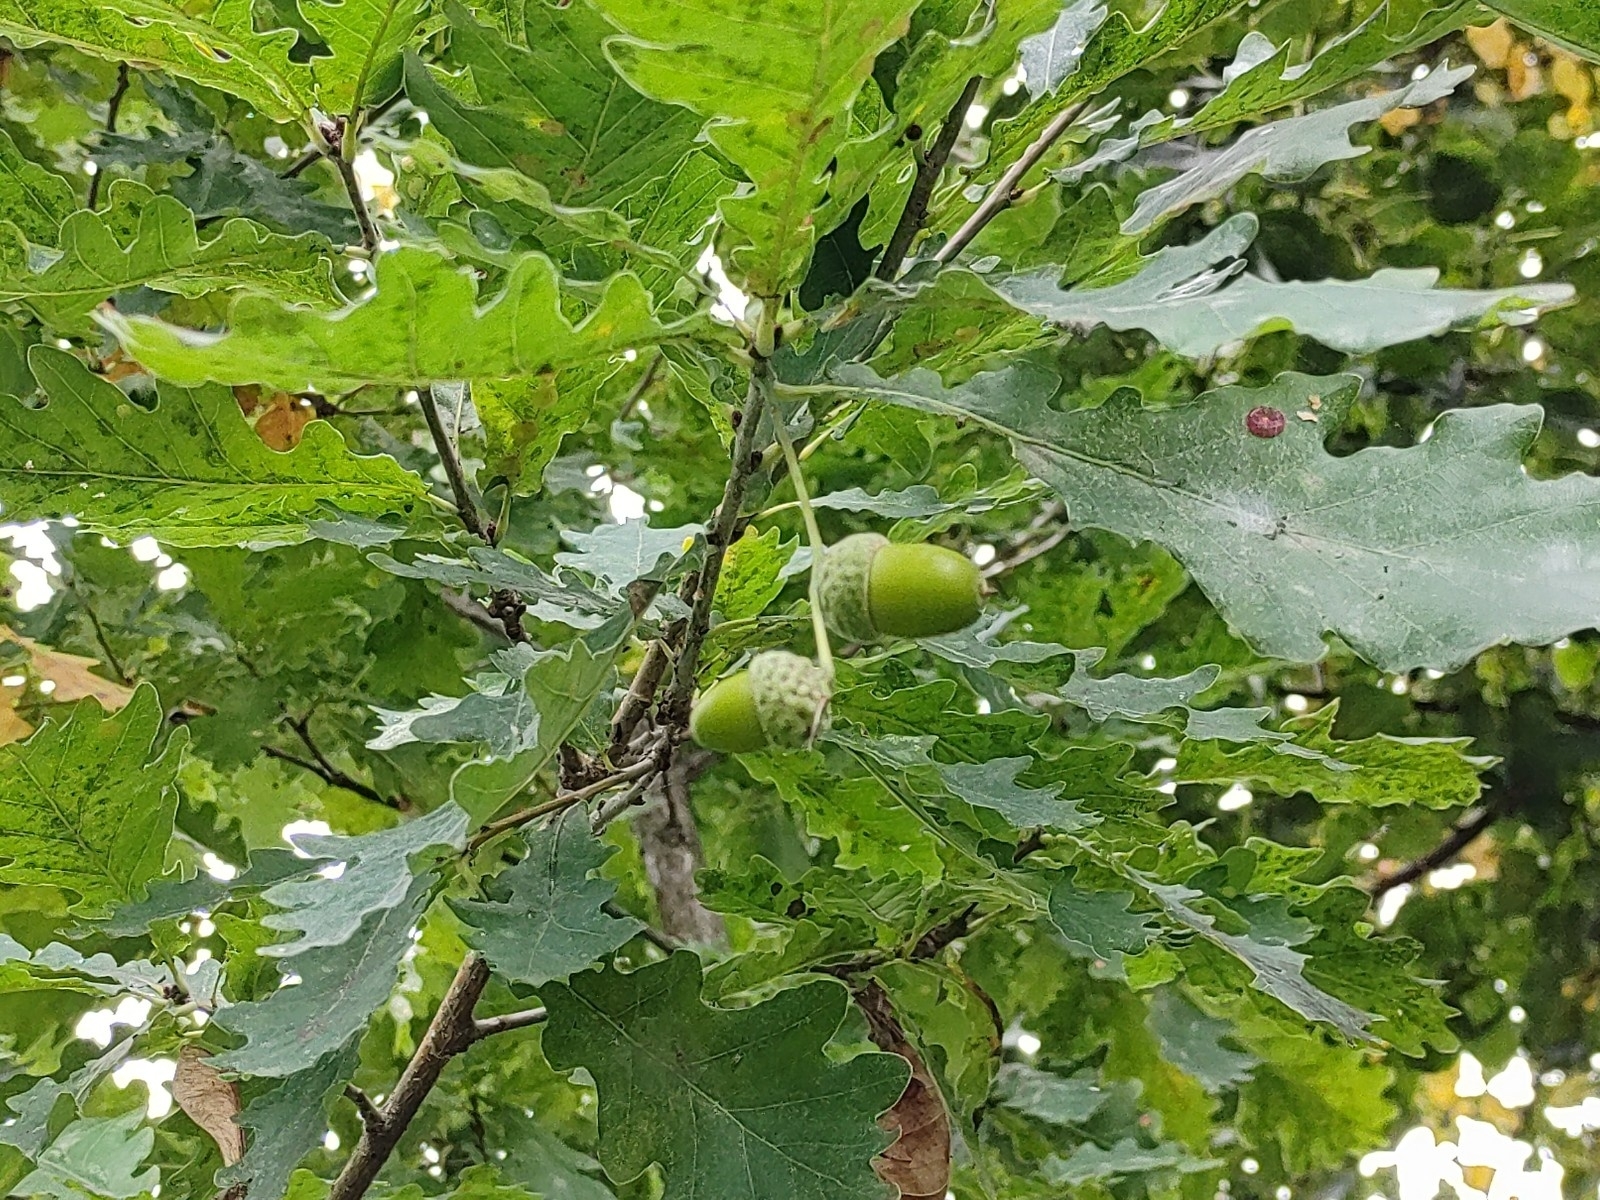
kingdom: Plantae
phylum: Tracheophyta
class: Magnoliopsida
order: Fagales
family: Fagaceae
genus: Quercus
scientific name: Quercus robur
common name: Pedunculate oak
